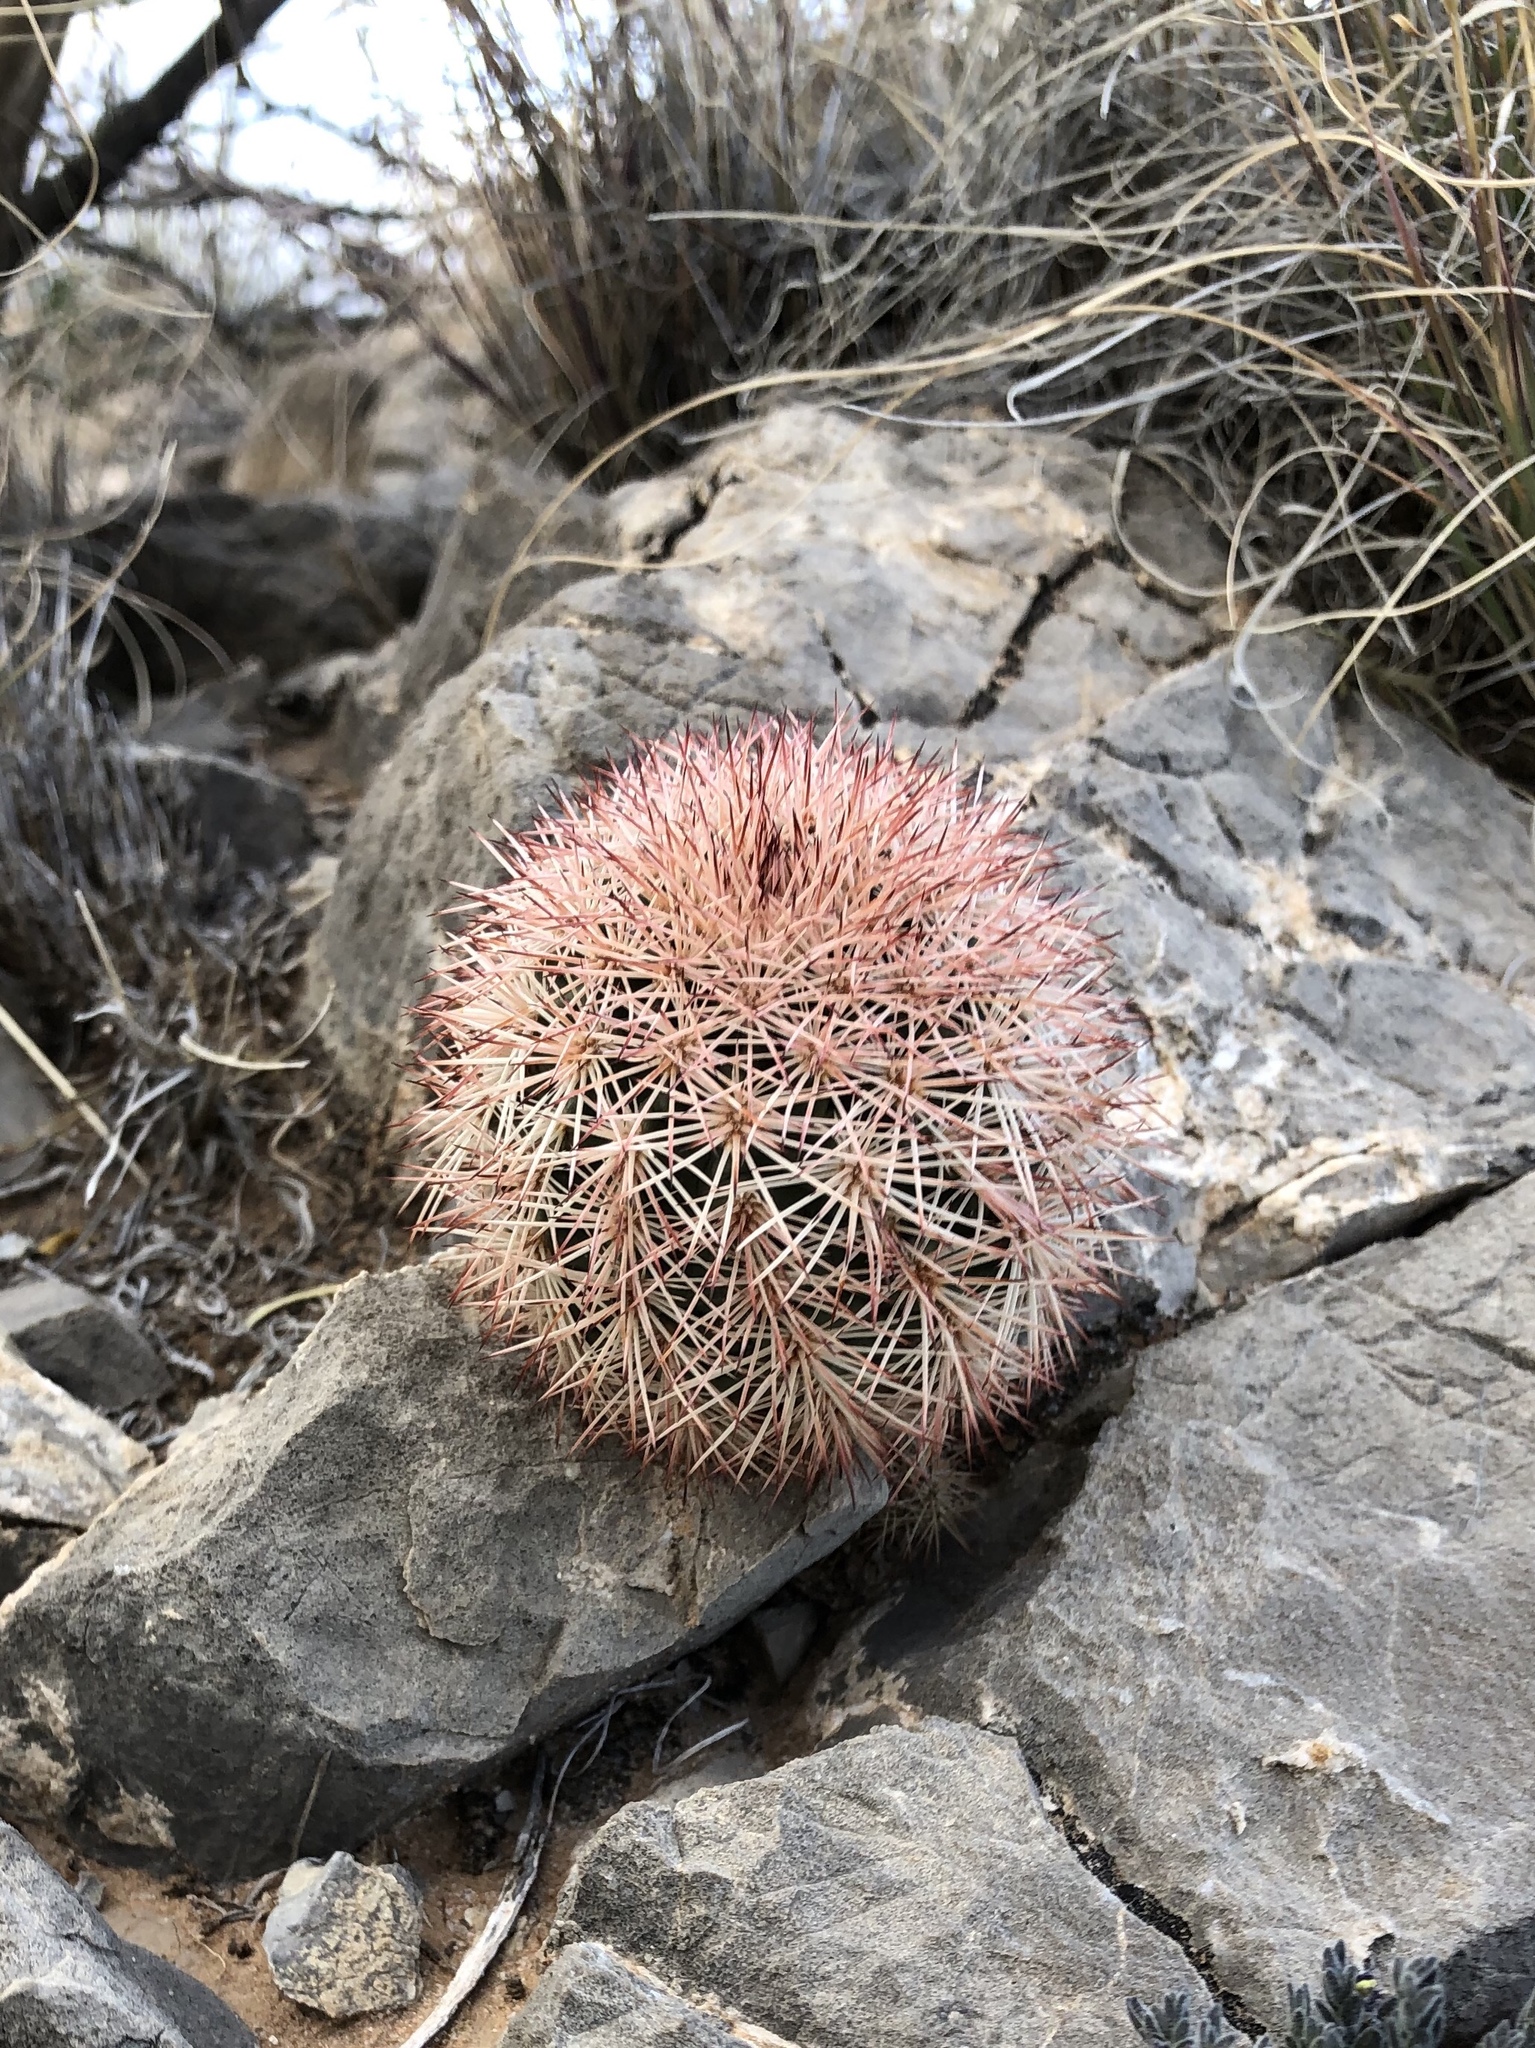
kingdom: Plantae
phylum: Tracheophyta
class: Magnoliopsida
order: Caryophyllales
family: Cactaceae
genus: Echinocereus
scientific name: Echinocereus dasyacanthus
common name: Spiny hedgehog cactus
